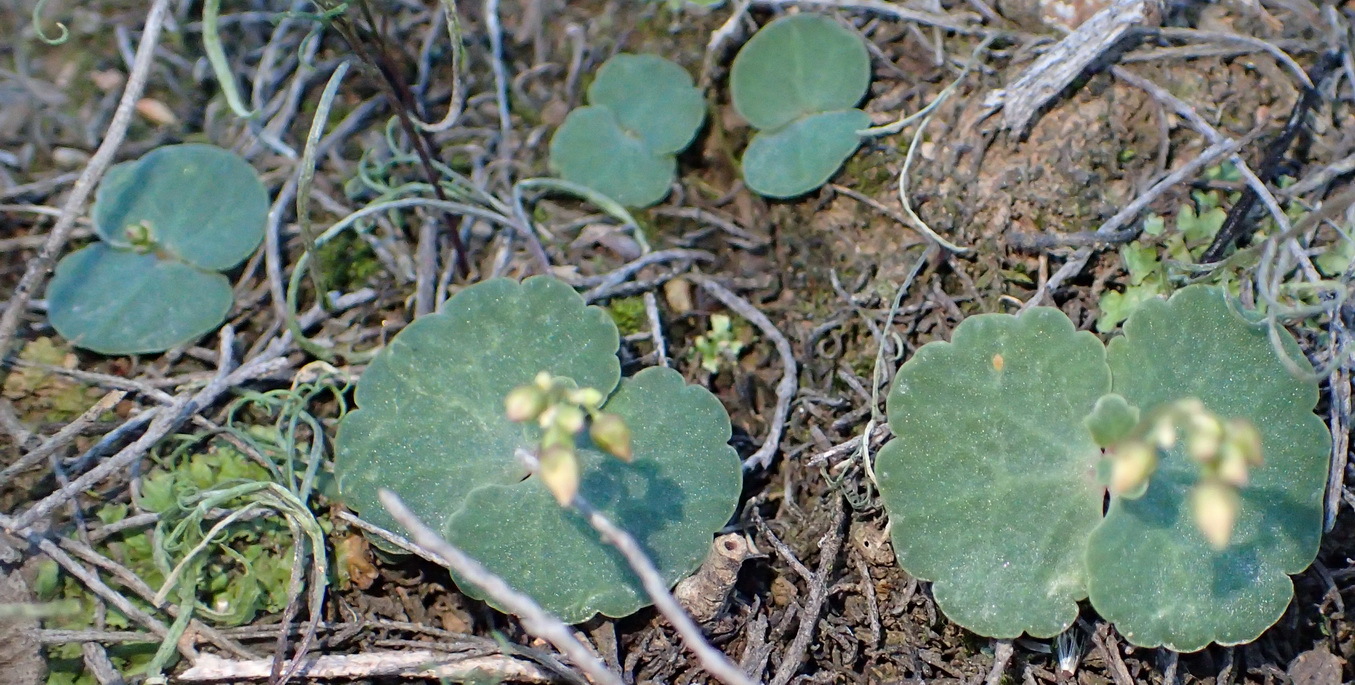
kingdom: Plantae
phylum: Tracheophyta
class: Magnoliopsida
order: Saxifragales
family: Crassulaceae
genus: Crassula
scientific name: Crassula umbella
